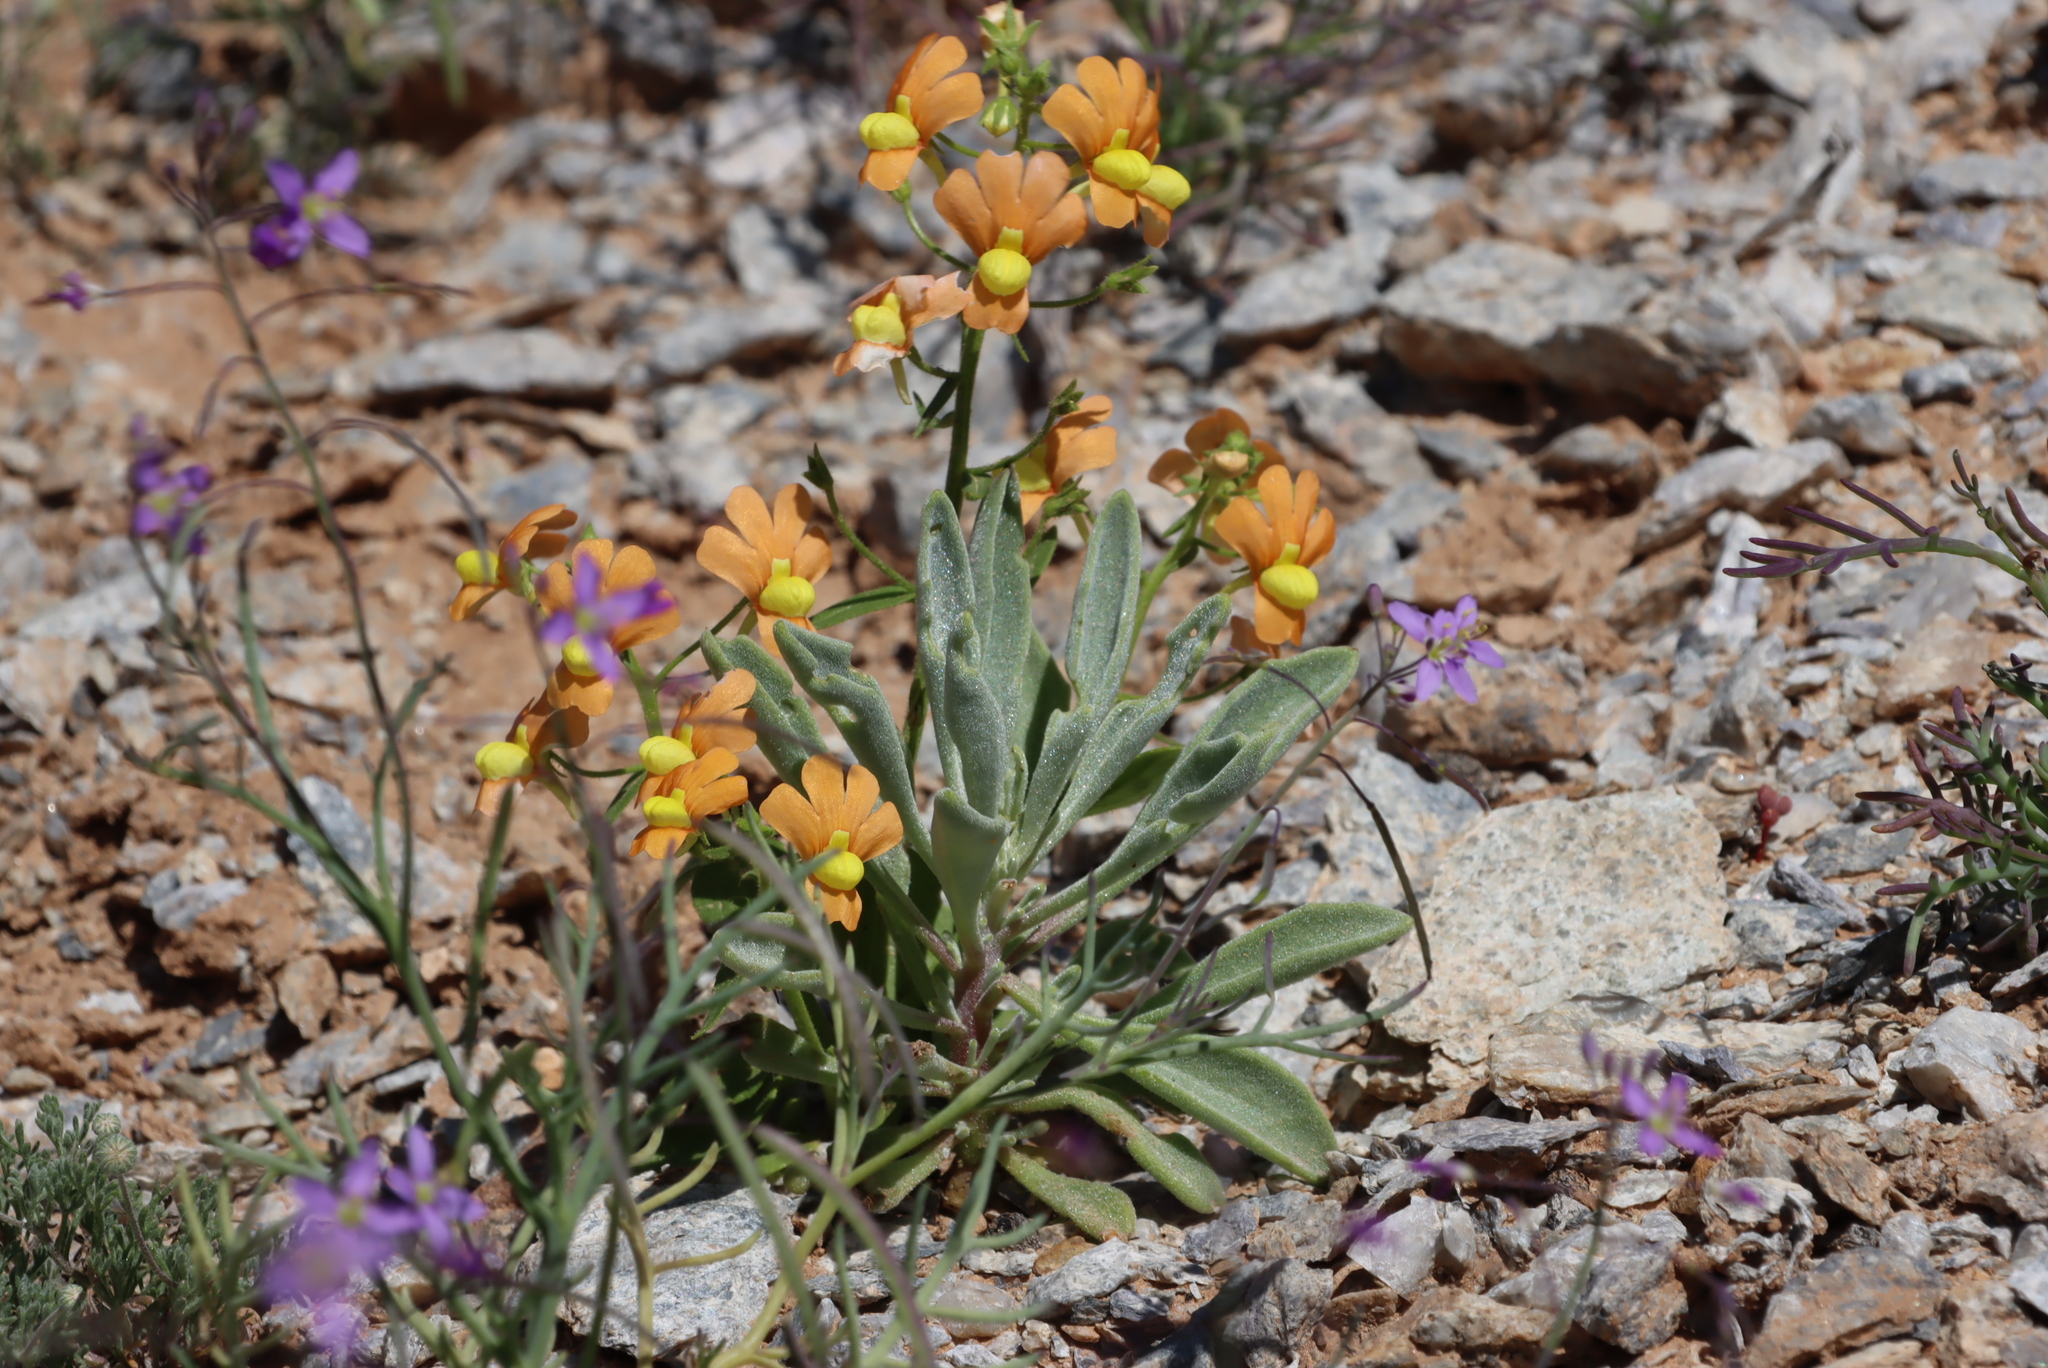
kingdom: Plantae
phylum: Tracheophyta
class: Magnoliopsida
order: Lamiales
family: Scrophulariaceae
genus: Nemesia
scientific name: Nemesia williamsonii
